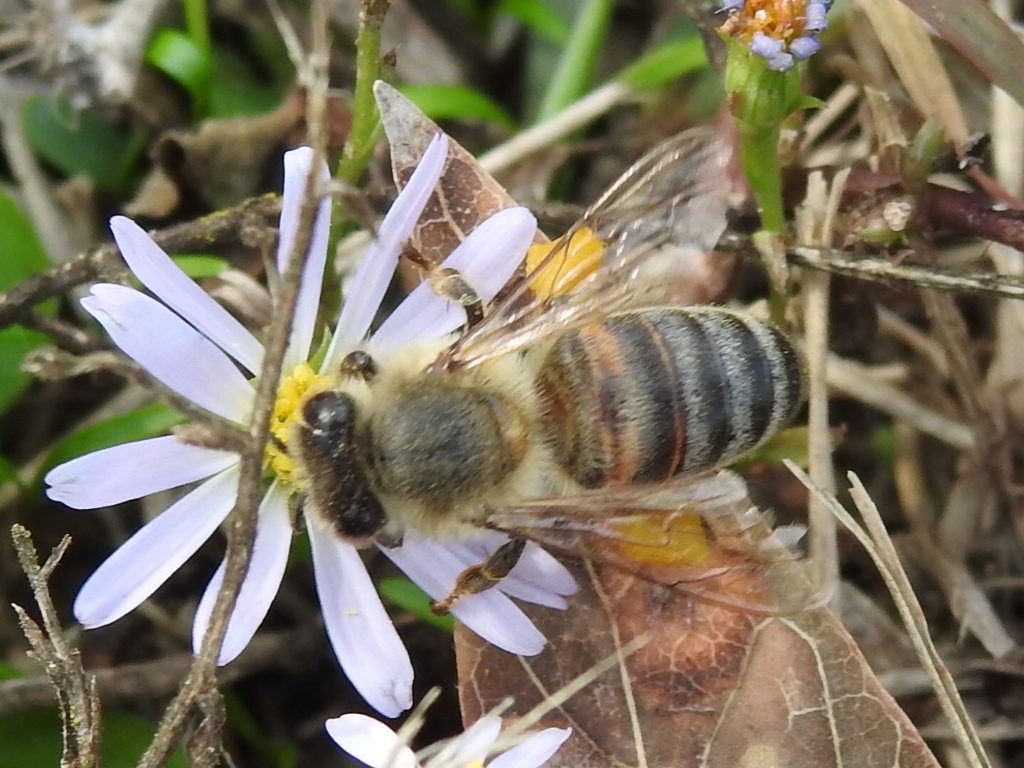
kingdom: Animalia
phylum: Arthropoda
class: Insecta
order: Hymenoptera
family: Apidae
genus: Apis
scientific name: Apis mellifera
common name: Honey bee
